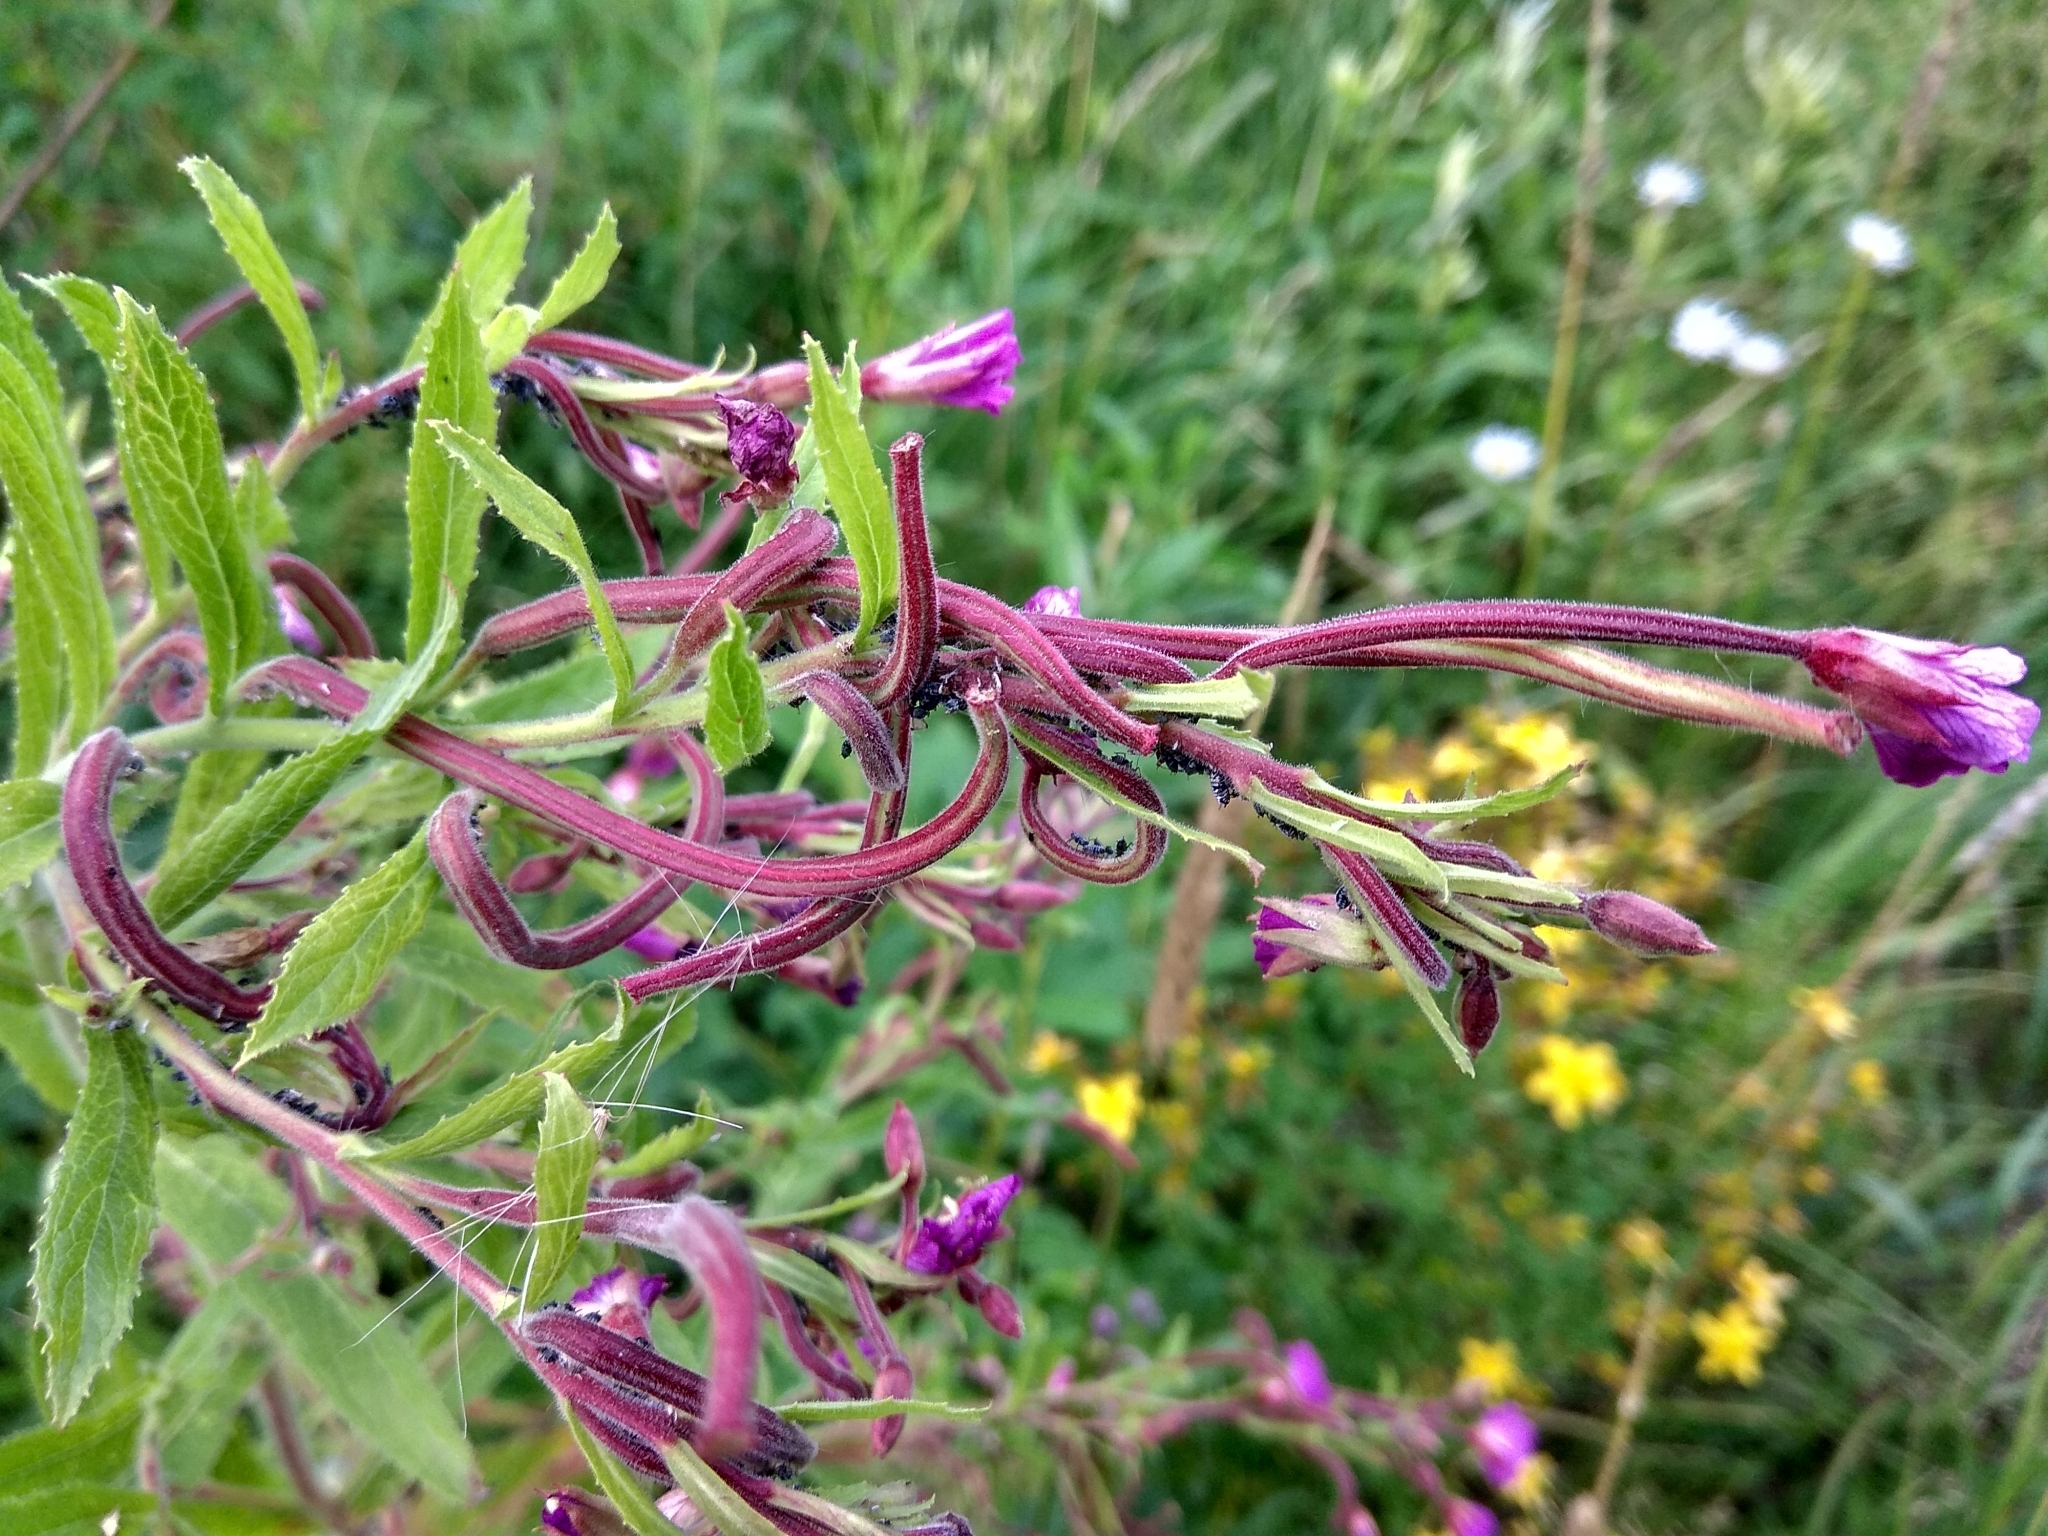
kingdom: Plantae
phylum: Tracheophyta
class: Magnoliopsida
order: Myrtales
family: Onagraceae
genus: Epilobium
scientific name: Epilobium hirsutum
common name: Great willowherb
